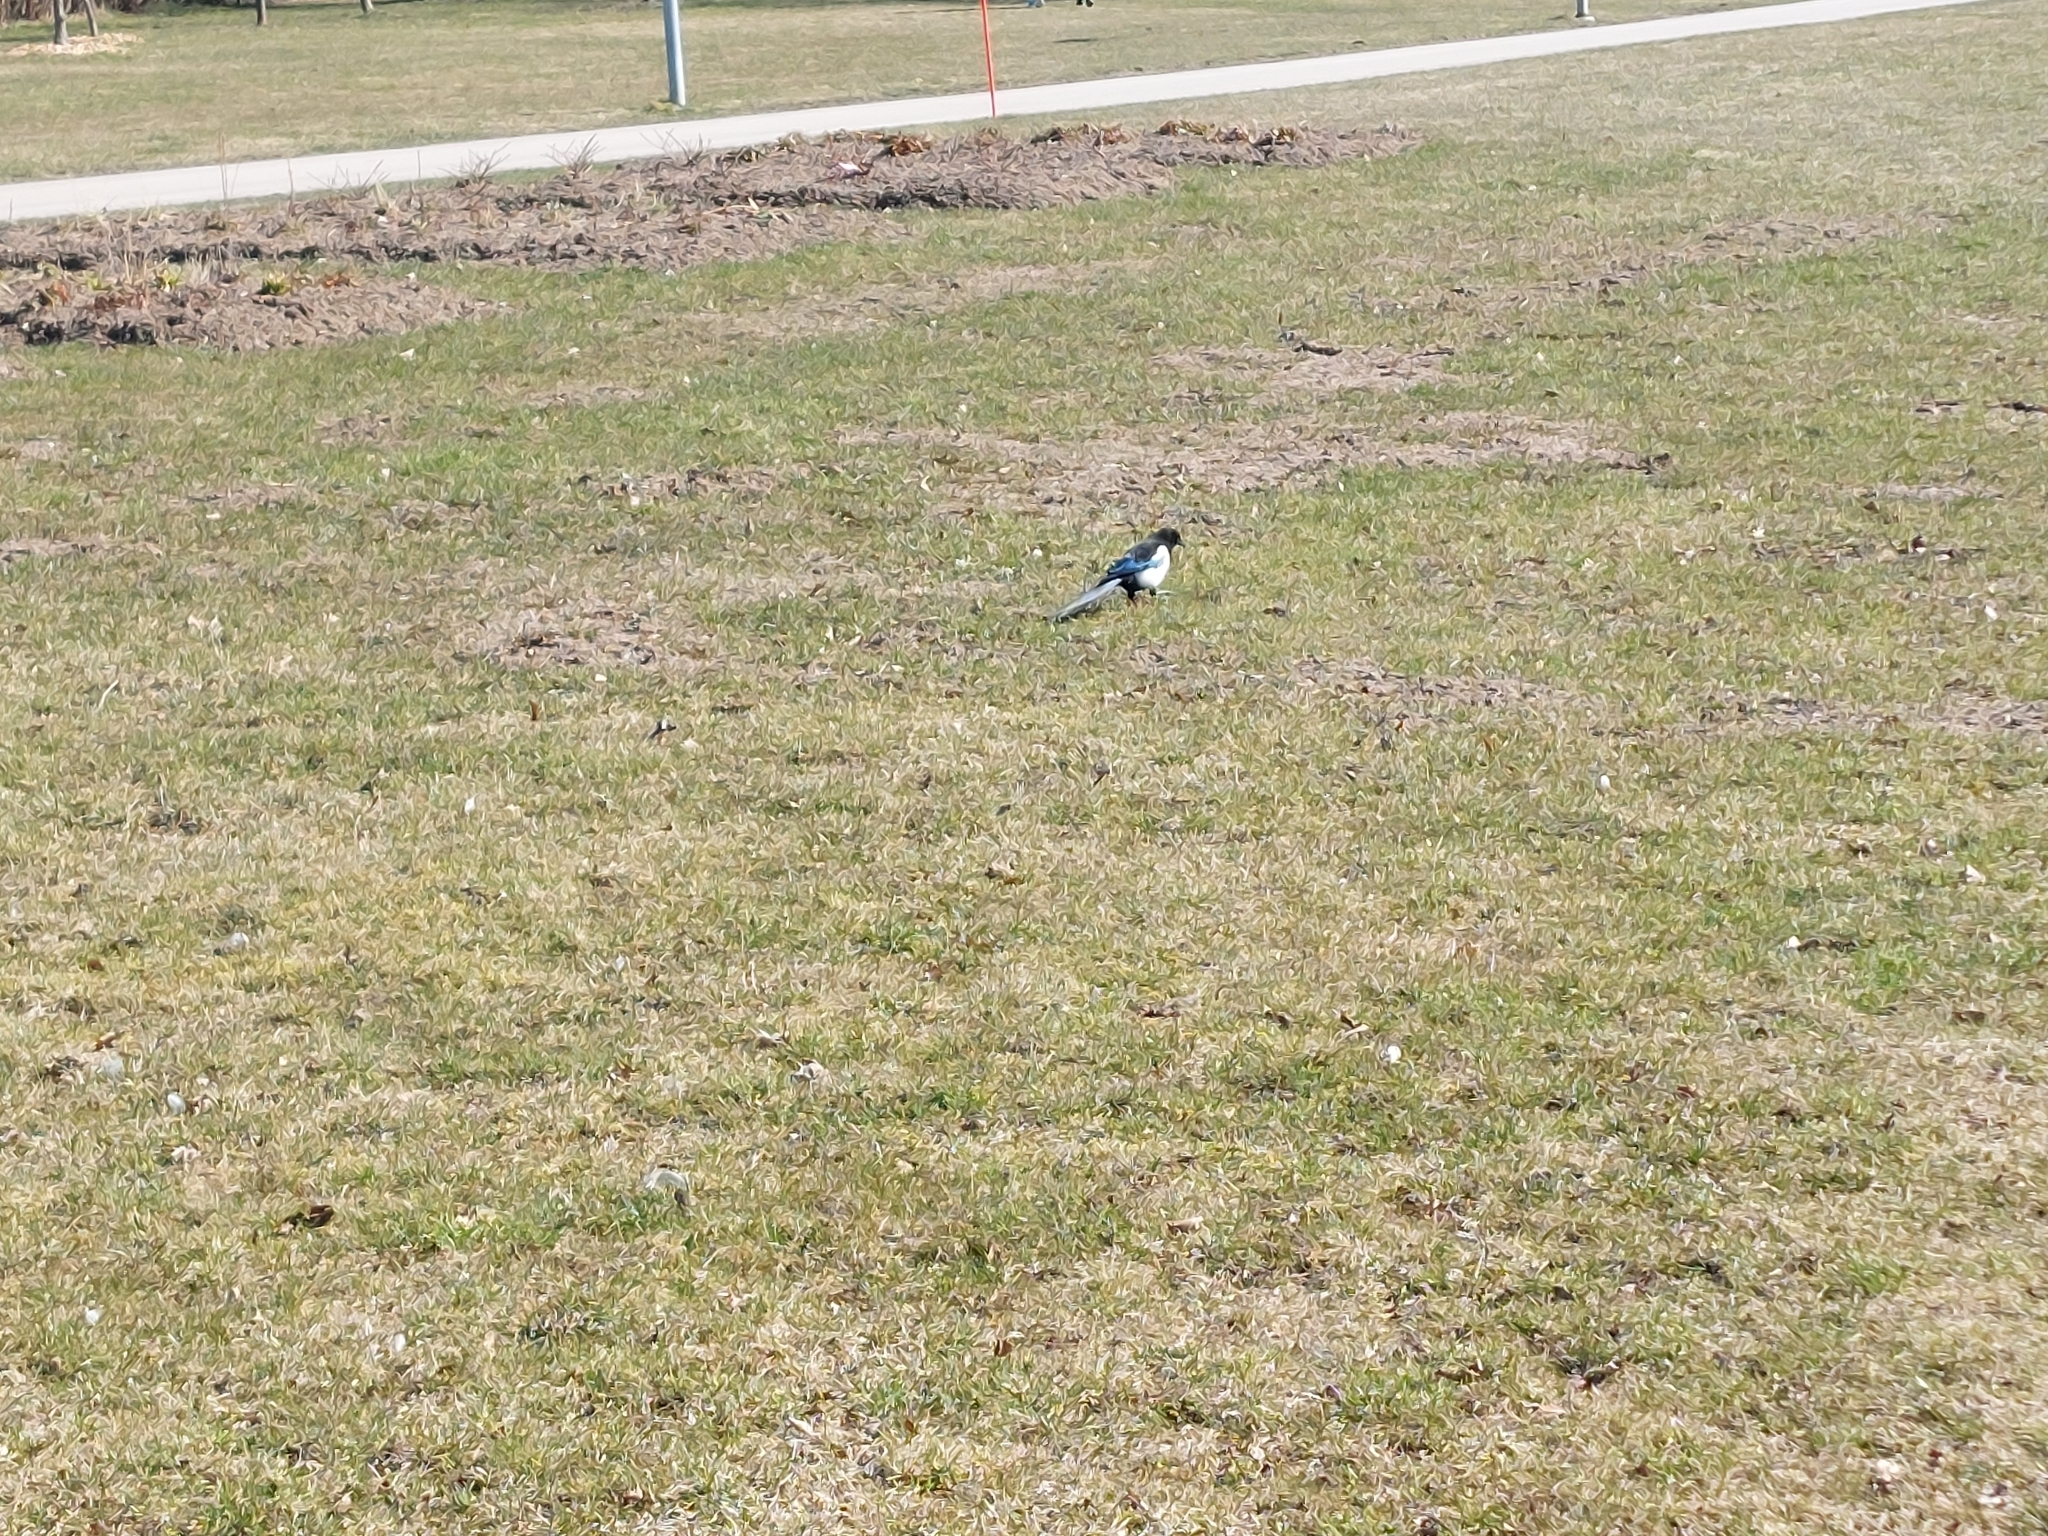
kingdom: Animalia
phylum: Chordata
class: Aves
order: Passeriformes
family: Corvidae
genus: Pica
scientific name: Pica pica
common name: Eurasian magpie
